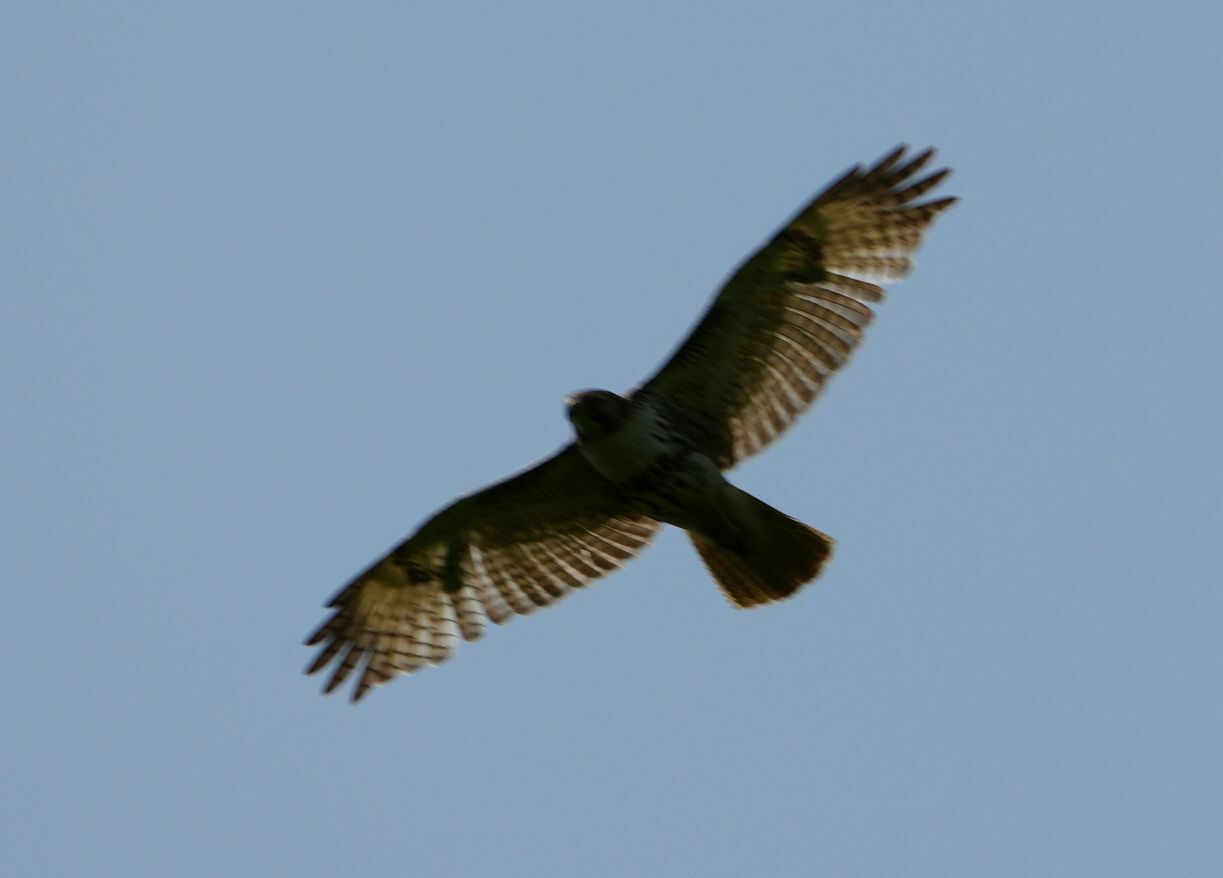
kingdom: Animalia
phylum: Chordata
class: Aves
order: Accipitriformes
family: Accipitridae
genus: Buteo
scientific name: Buteo jamaicensis
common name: Red-tailed hawk
